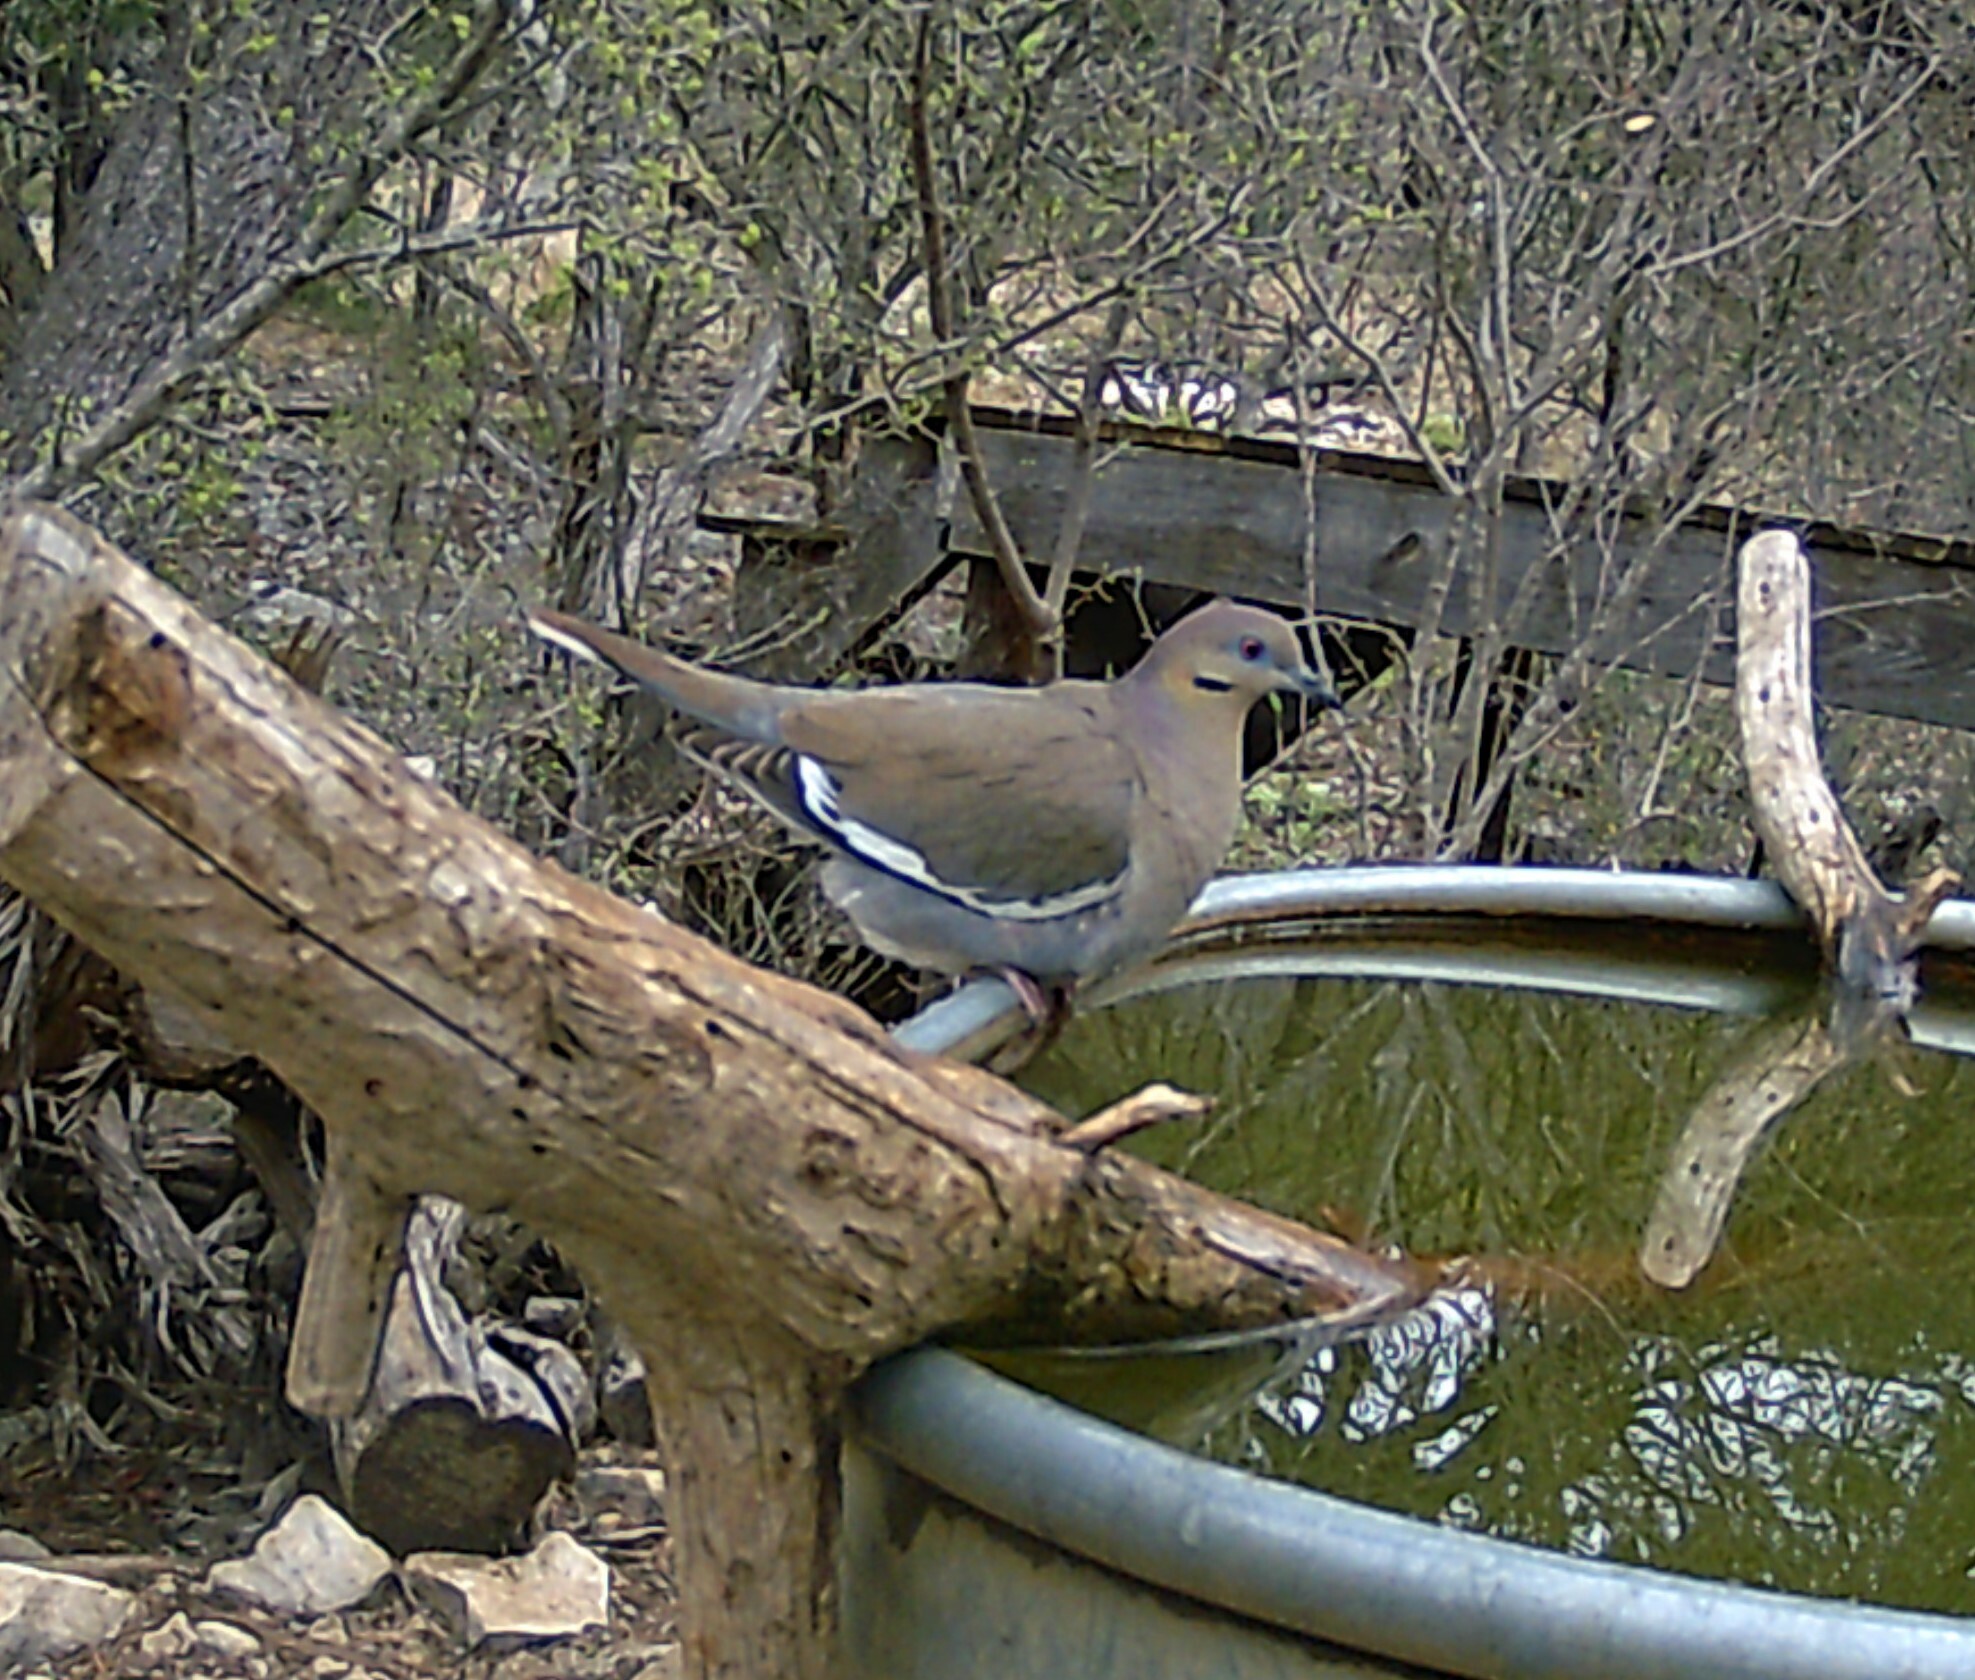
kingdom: Animalia
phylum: Chordata
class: Aves
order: Columbiformes
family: Columbidae
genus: Zenaida
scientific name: Zenaida asiatica
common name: White-winged dove
